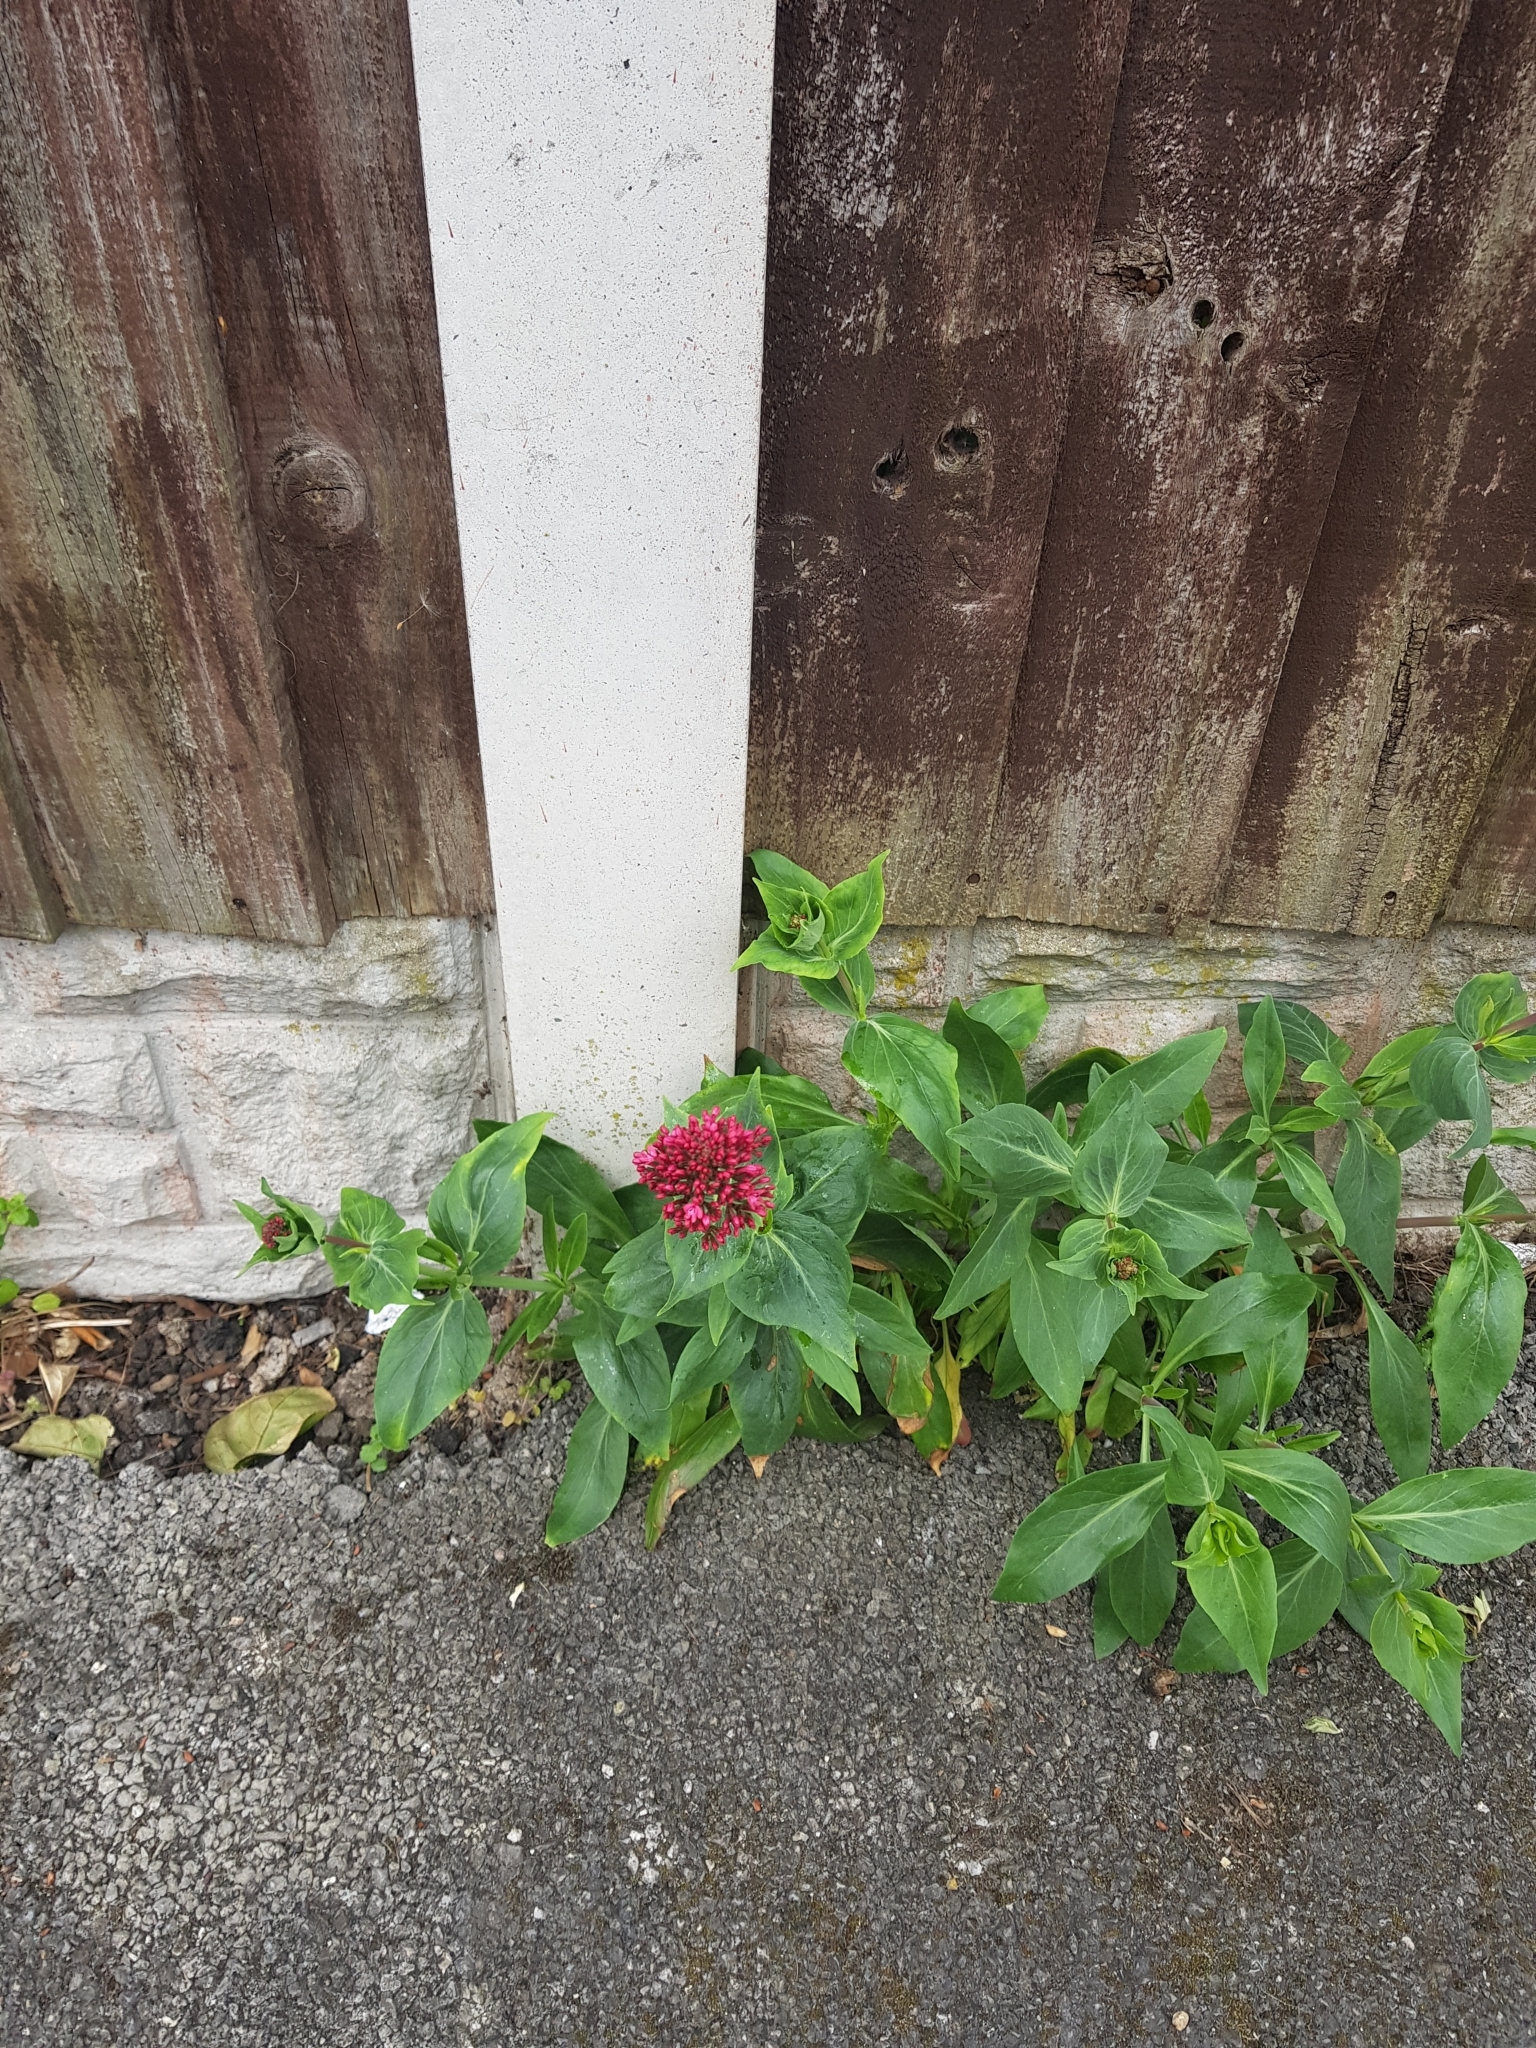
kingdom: Plantae
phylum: Tracheophyta
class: Magnoliopsida
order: Dipsacales
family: Caprifoliaceae
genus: Centranthus
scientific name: Centranthus ruber
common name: Red valerian
